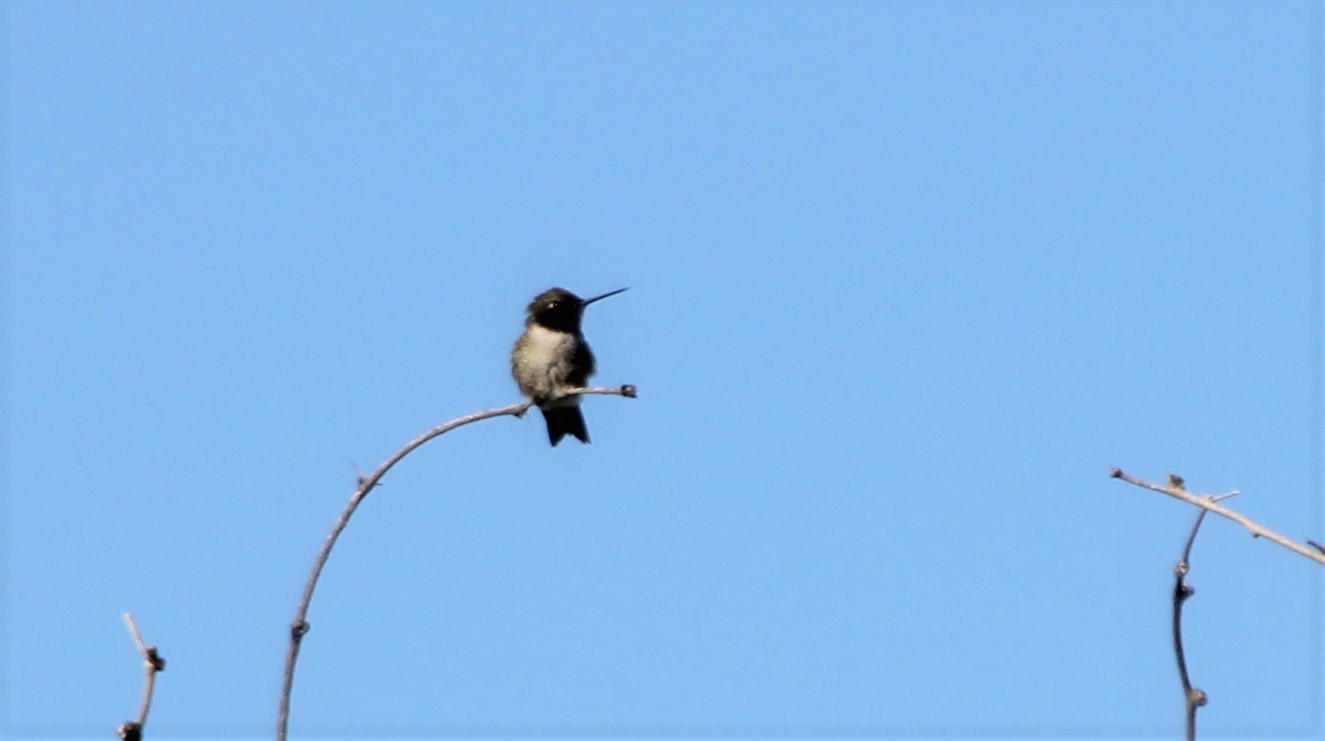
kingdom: Animalia
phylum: Chordata
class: Aves
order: Apodiformes
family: Trochilidae
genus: Archilochus
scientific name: Archilochus alexandri
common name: Black-chinned hummingbird
